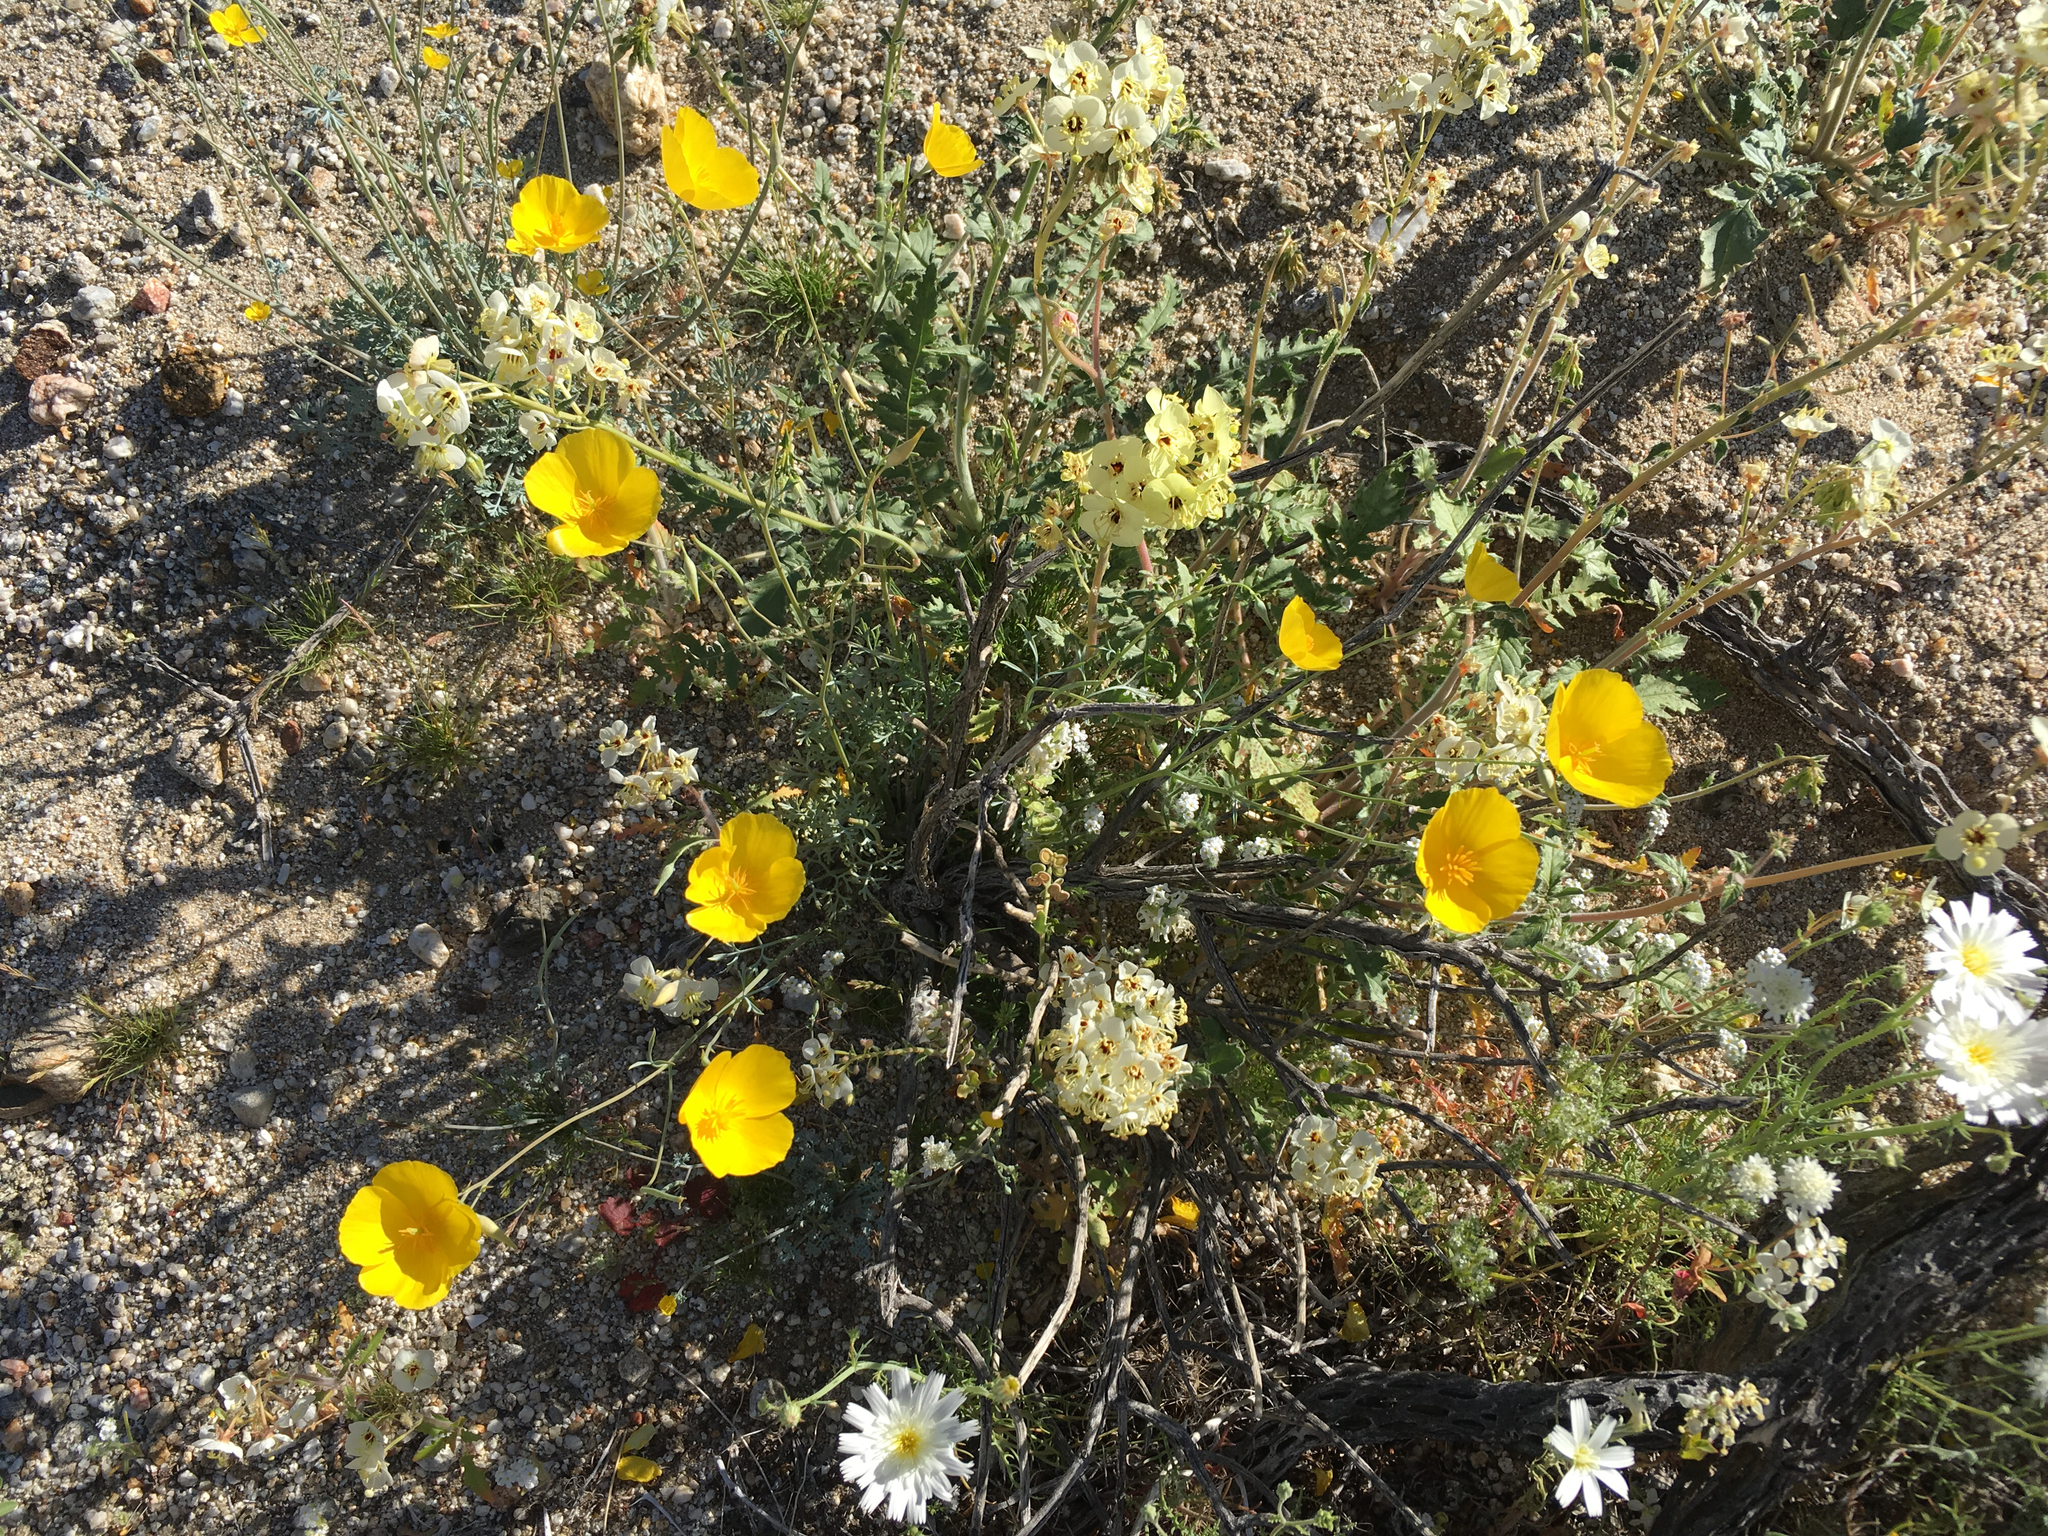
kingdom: Plantae
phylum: Tracheophyta
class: Magnoliopsida
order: Ranunculales
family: Papaveraceae
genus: Eschscholzia
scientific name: Eschscholzia parishii
